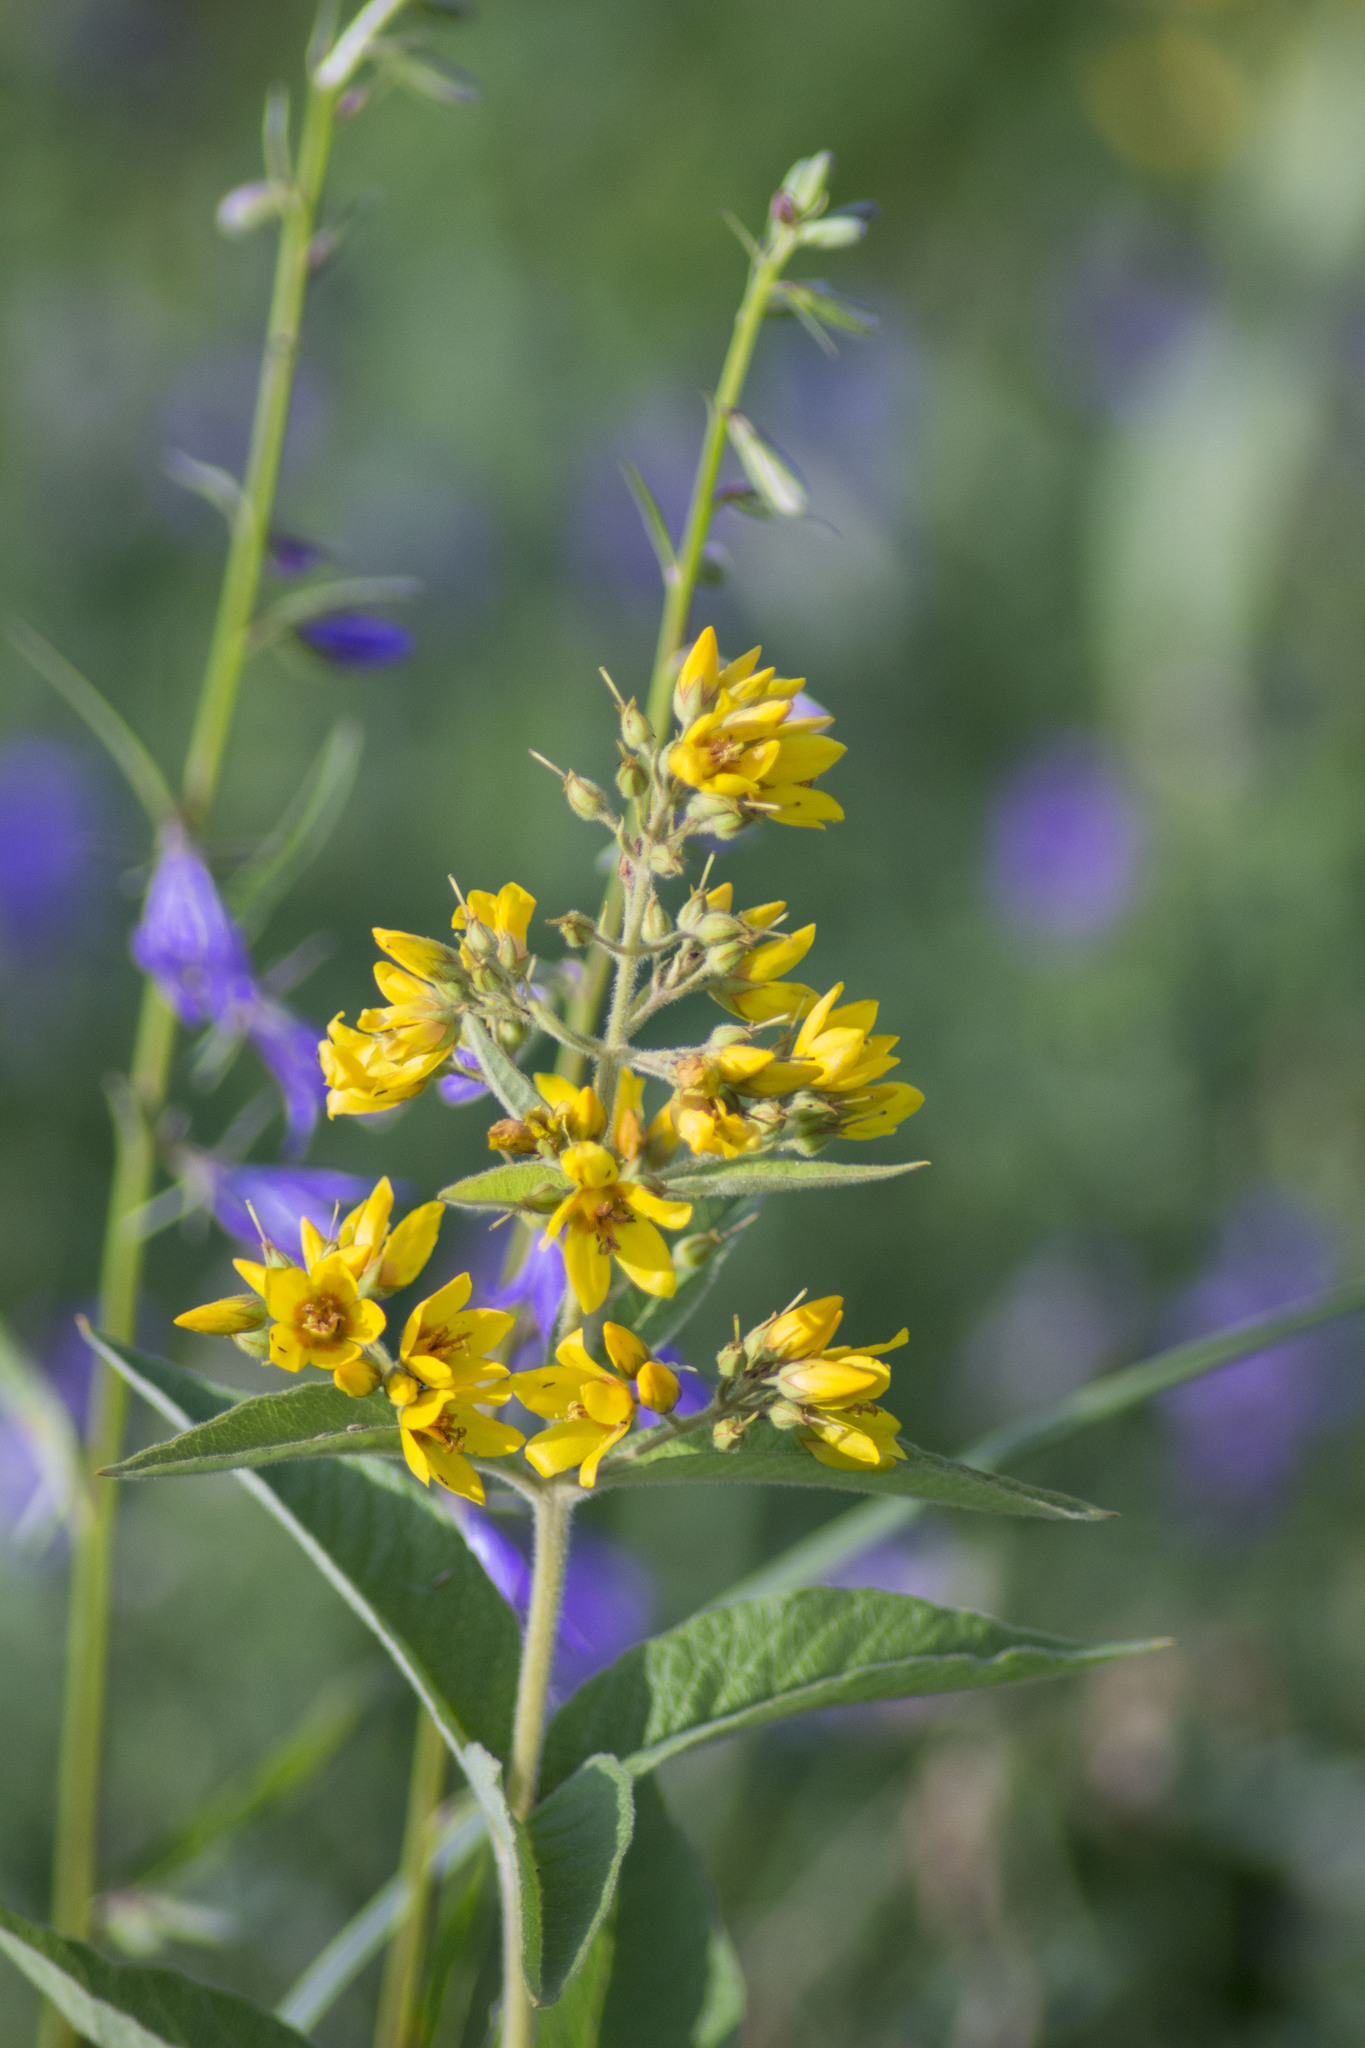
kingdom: Plantae
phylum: Tracheophyta
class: Magnoliopsida
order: Ericales
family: Primulaceae
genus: Lysimachia
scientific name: Lysimachia vulgaris
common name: Yellow loosestrife
